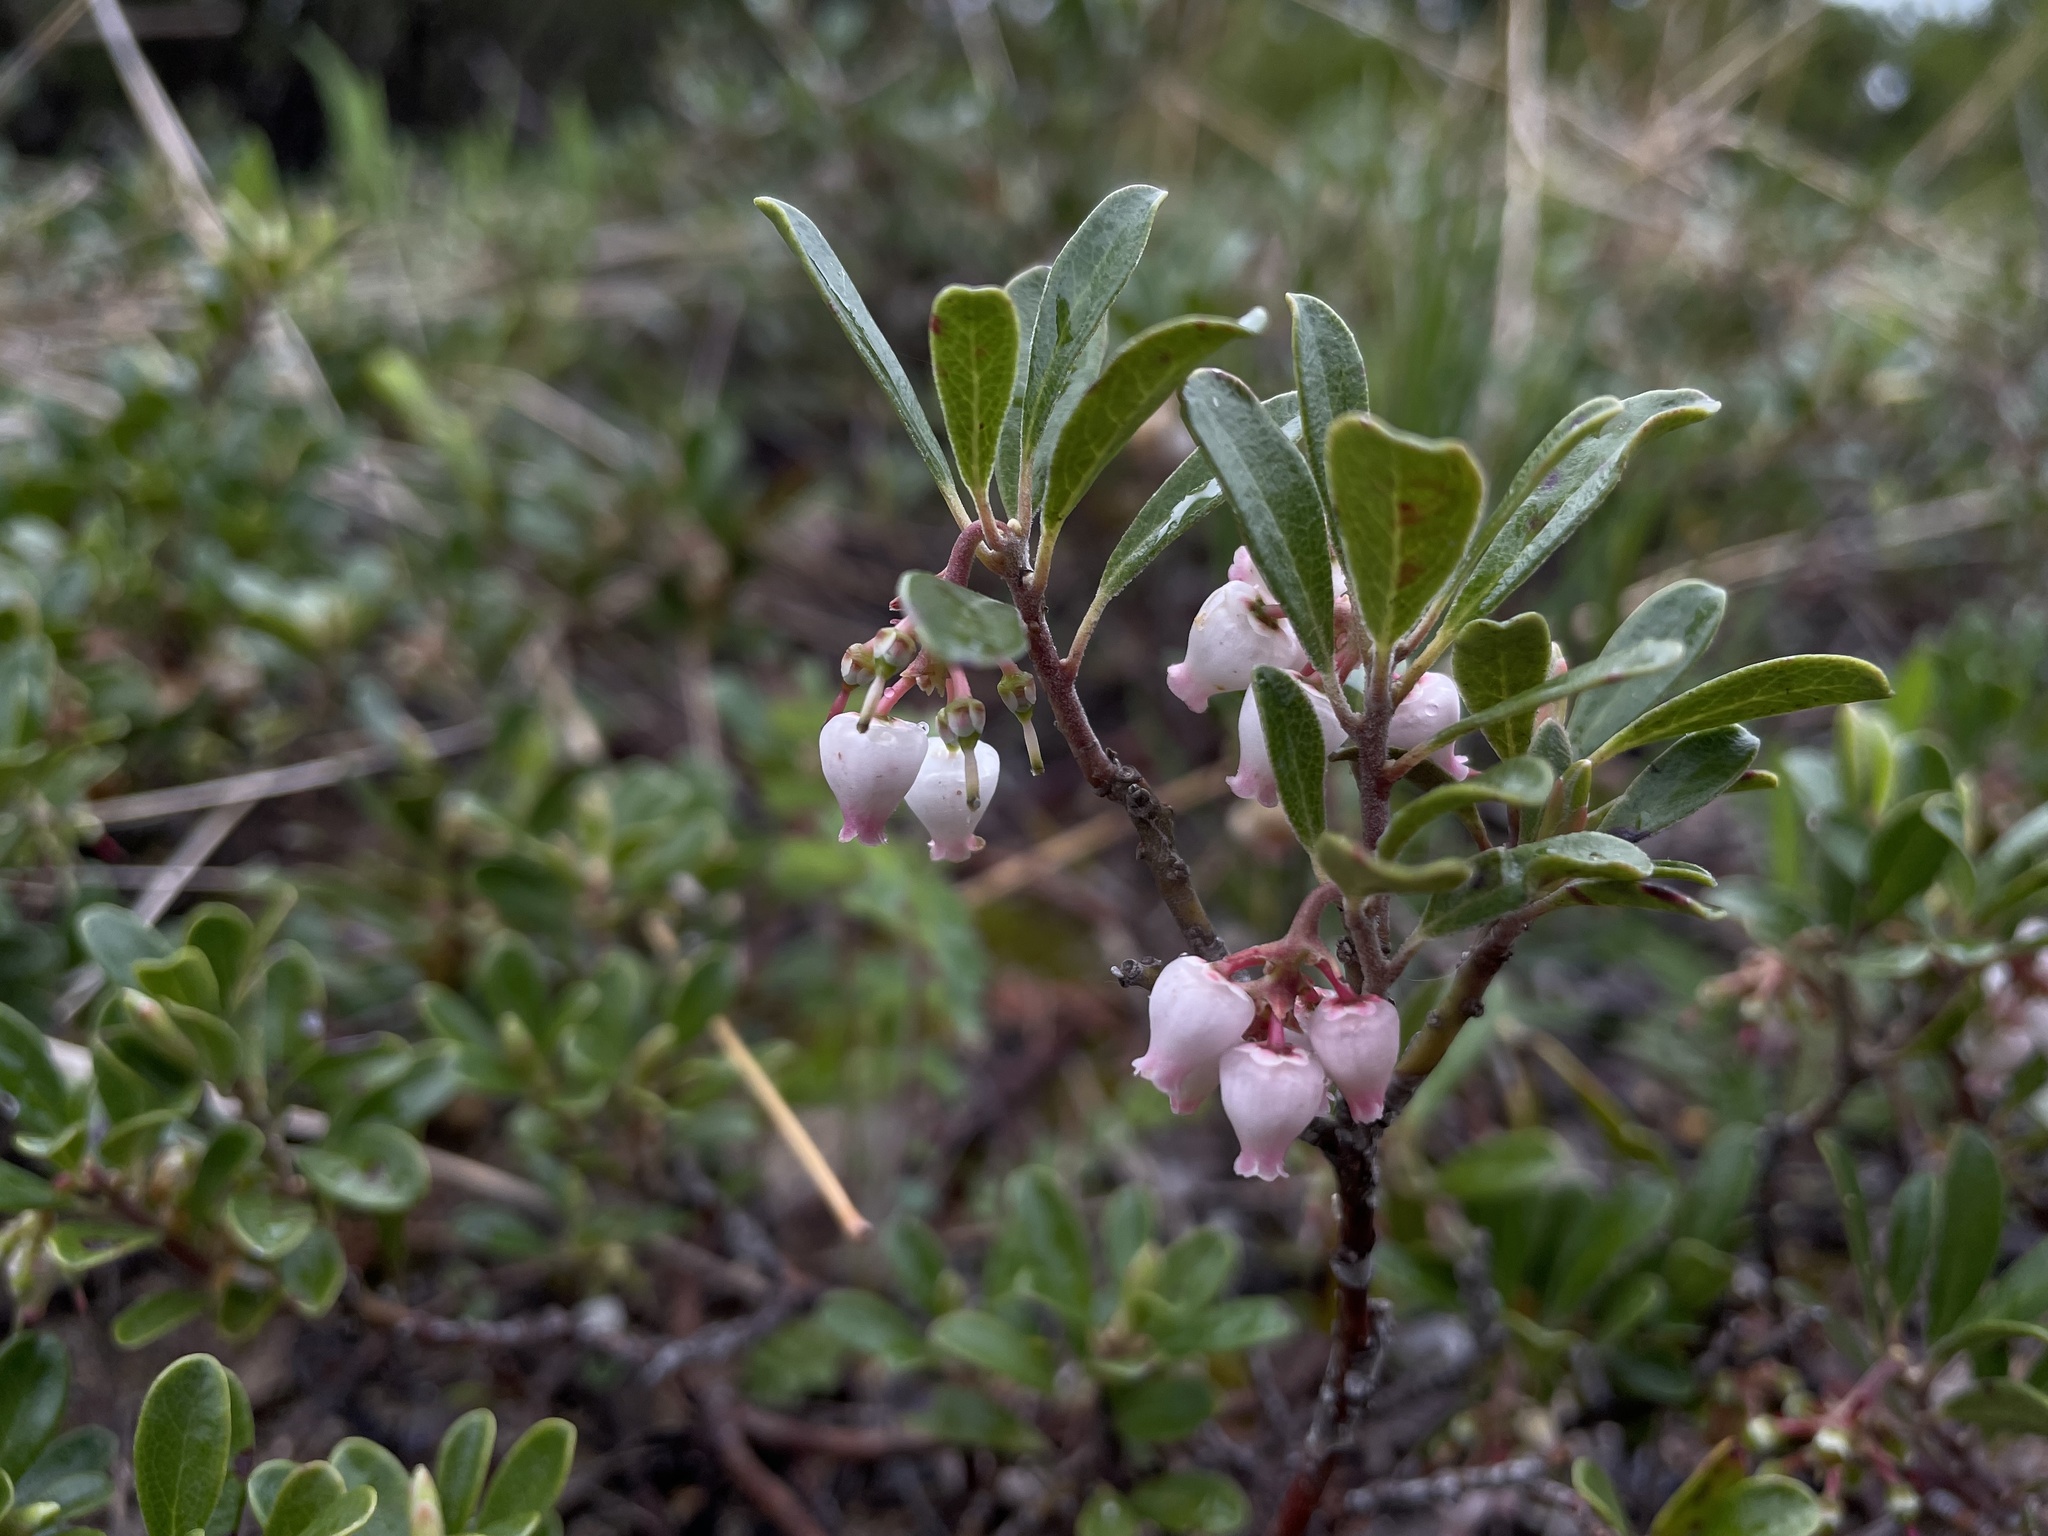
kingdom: Plantae
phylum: Tracheophyta
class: Magnoliopsida
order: Ericales
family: Ericaceae
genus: Arctostaphylos
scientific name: Arctostaphylos uva-ursi
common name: Bearberry
